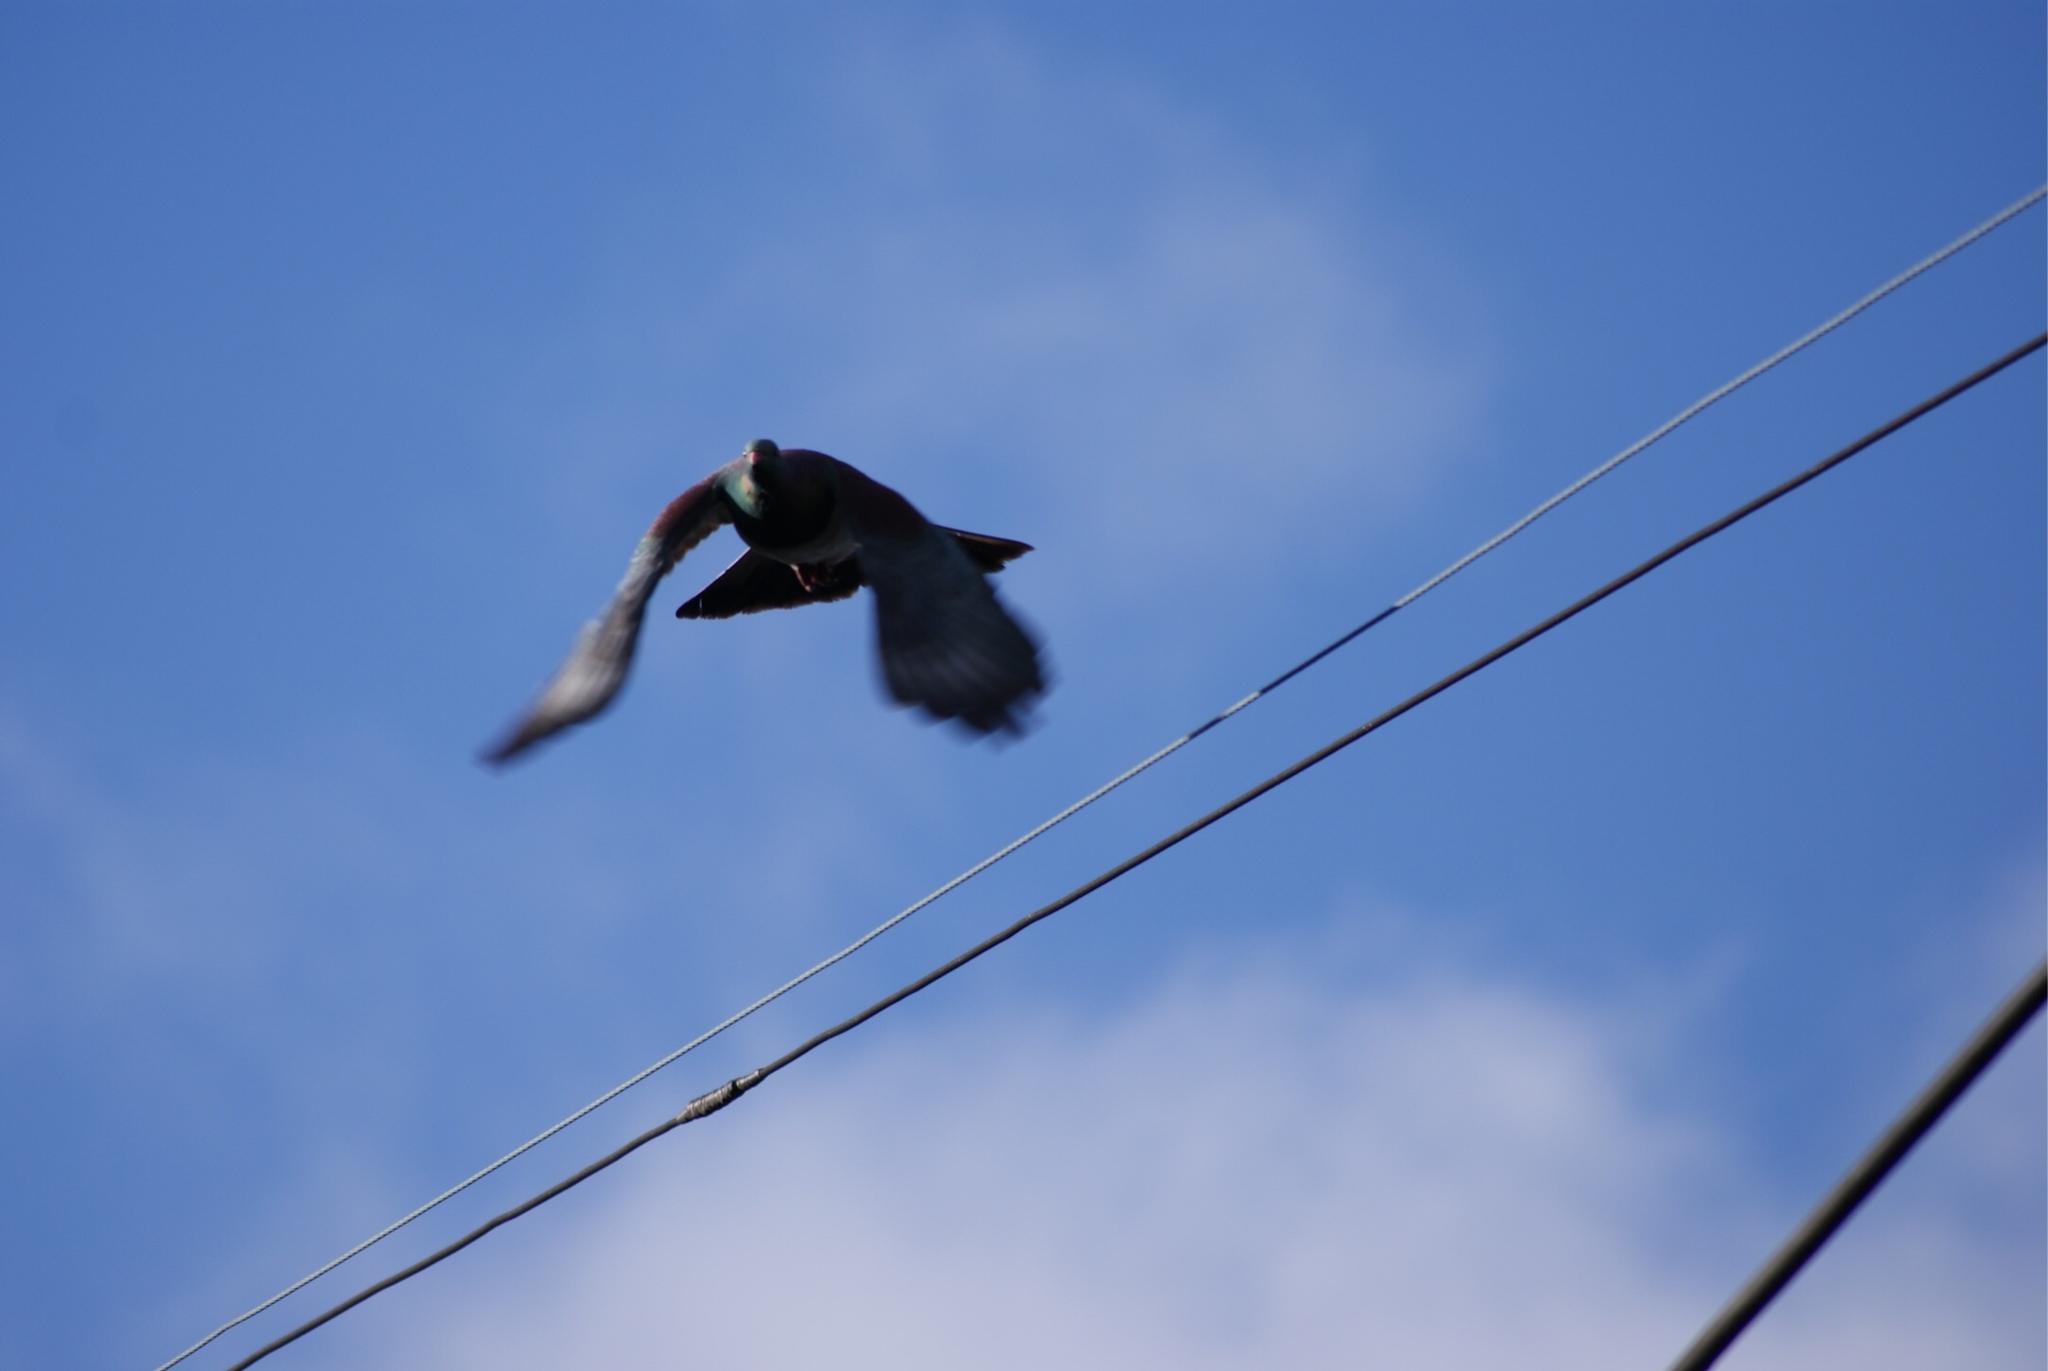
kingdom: Animalia
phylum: Chordata
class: Aves
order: Columbiformes
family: Columbidae
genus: Hemiphaga
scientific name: Hemiphaga novaeseelandiae
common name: New zealand pigeon
